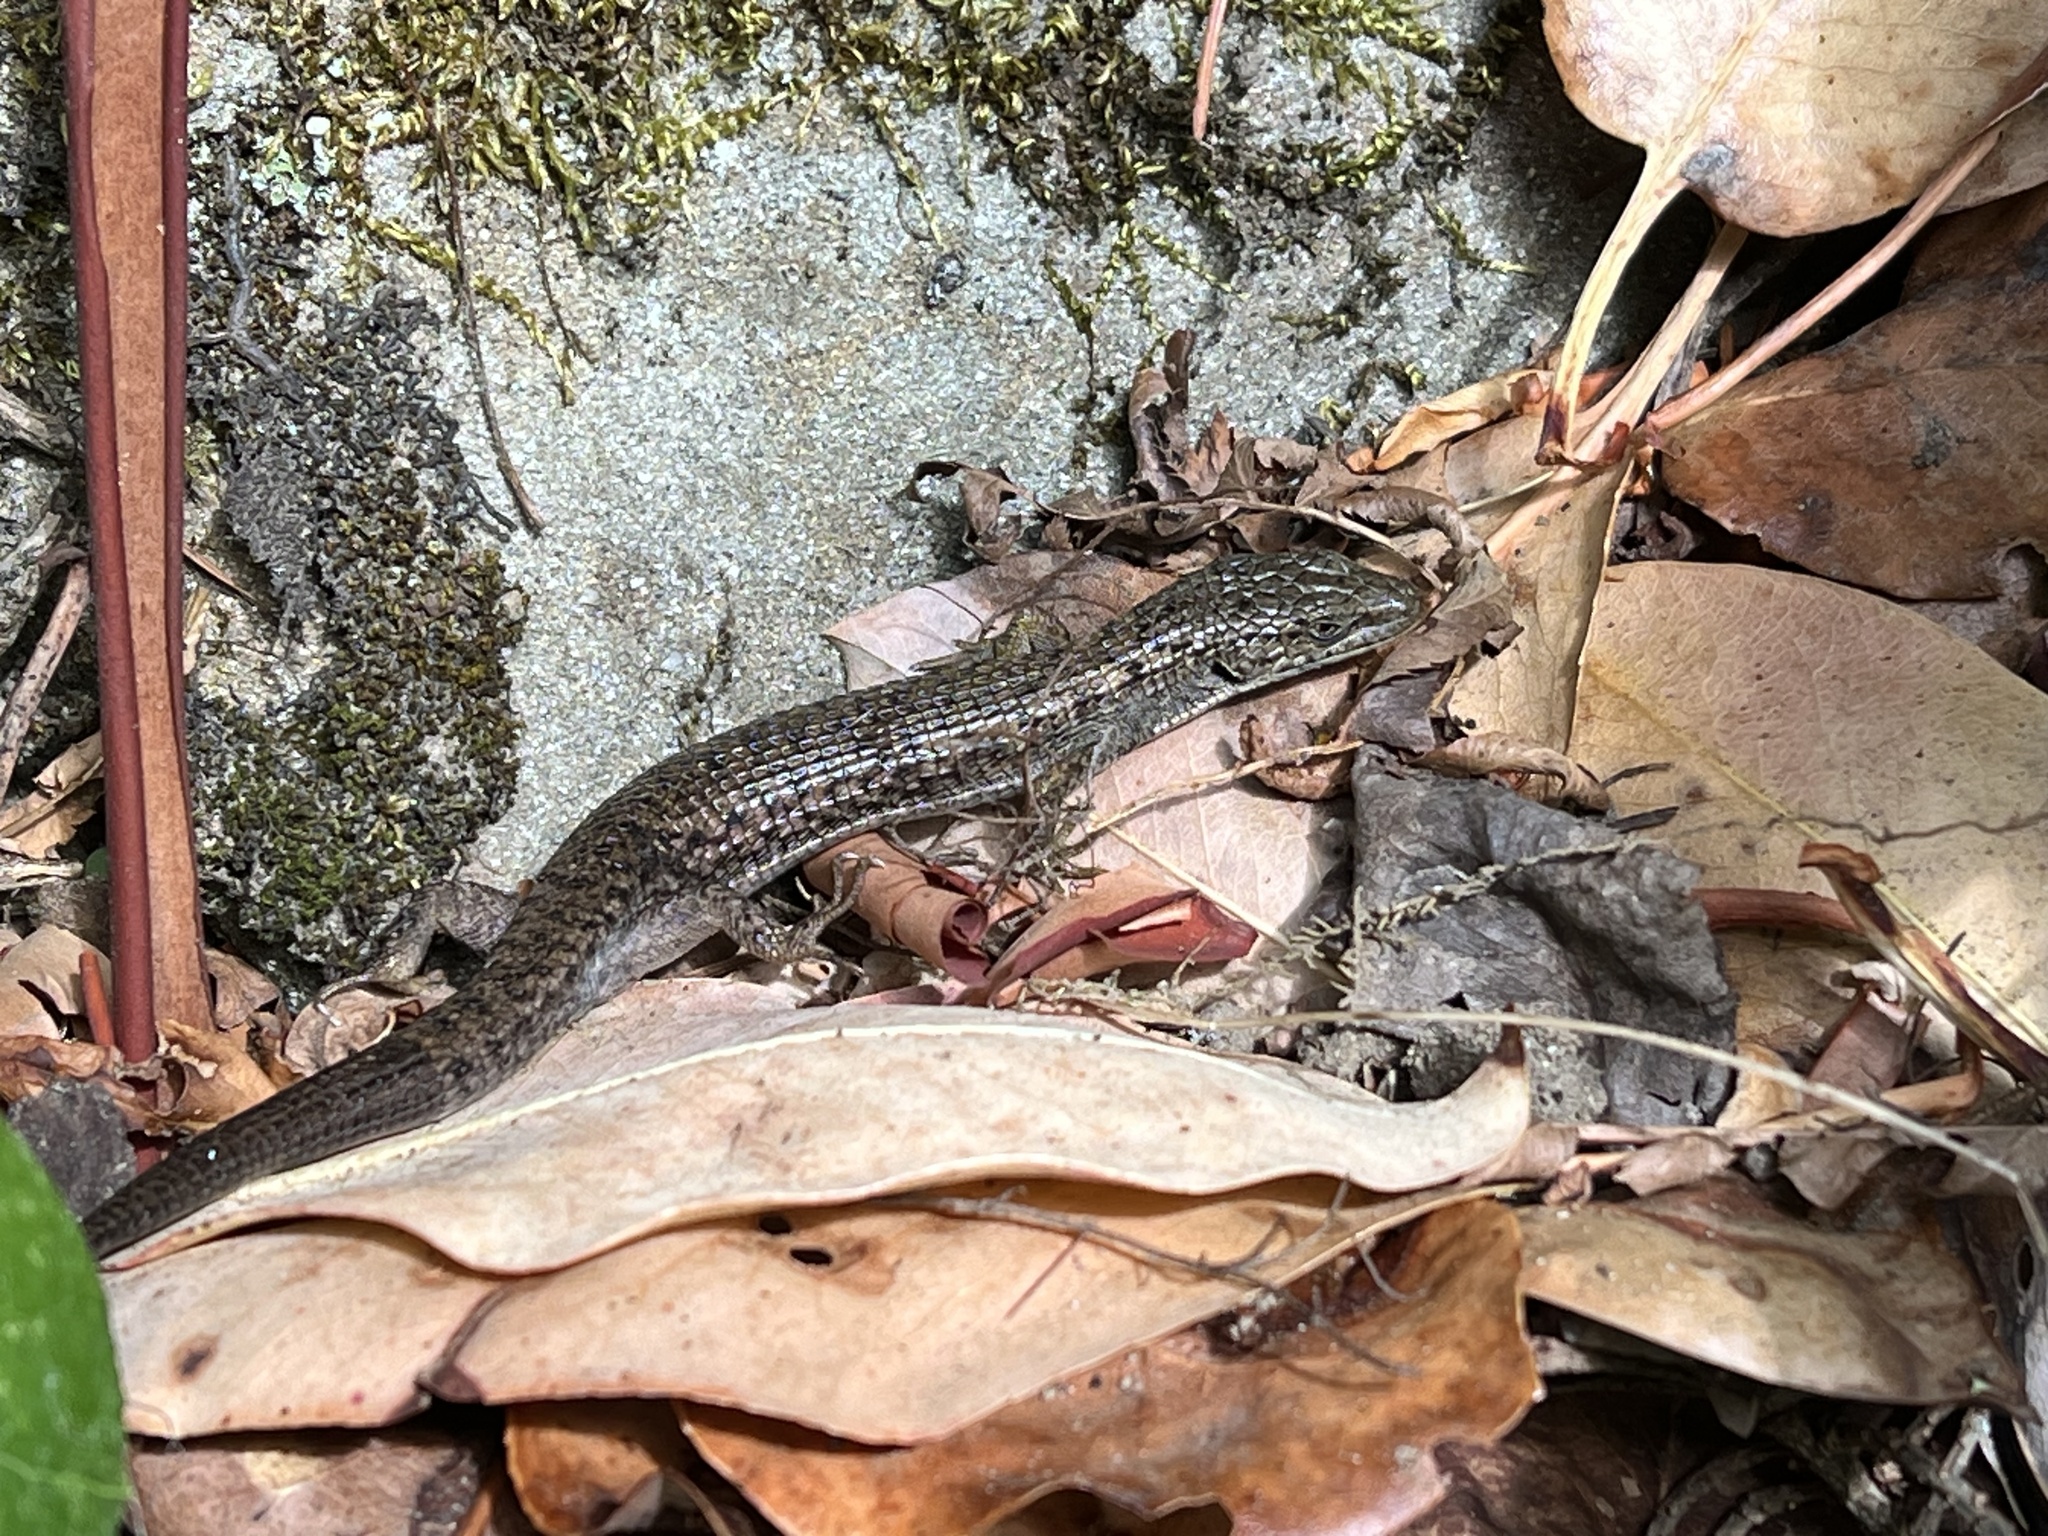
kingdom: Animalia
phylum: Chordata
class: Squamata
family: Anguidae
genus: Elgaria
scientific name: Elgaria coerulea
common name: Northern alligator lizard
